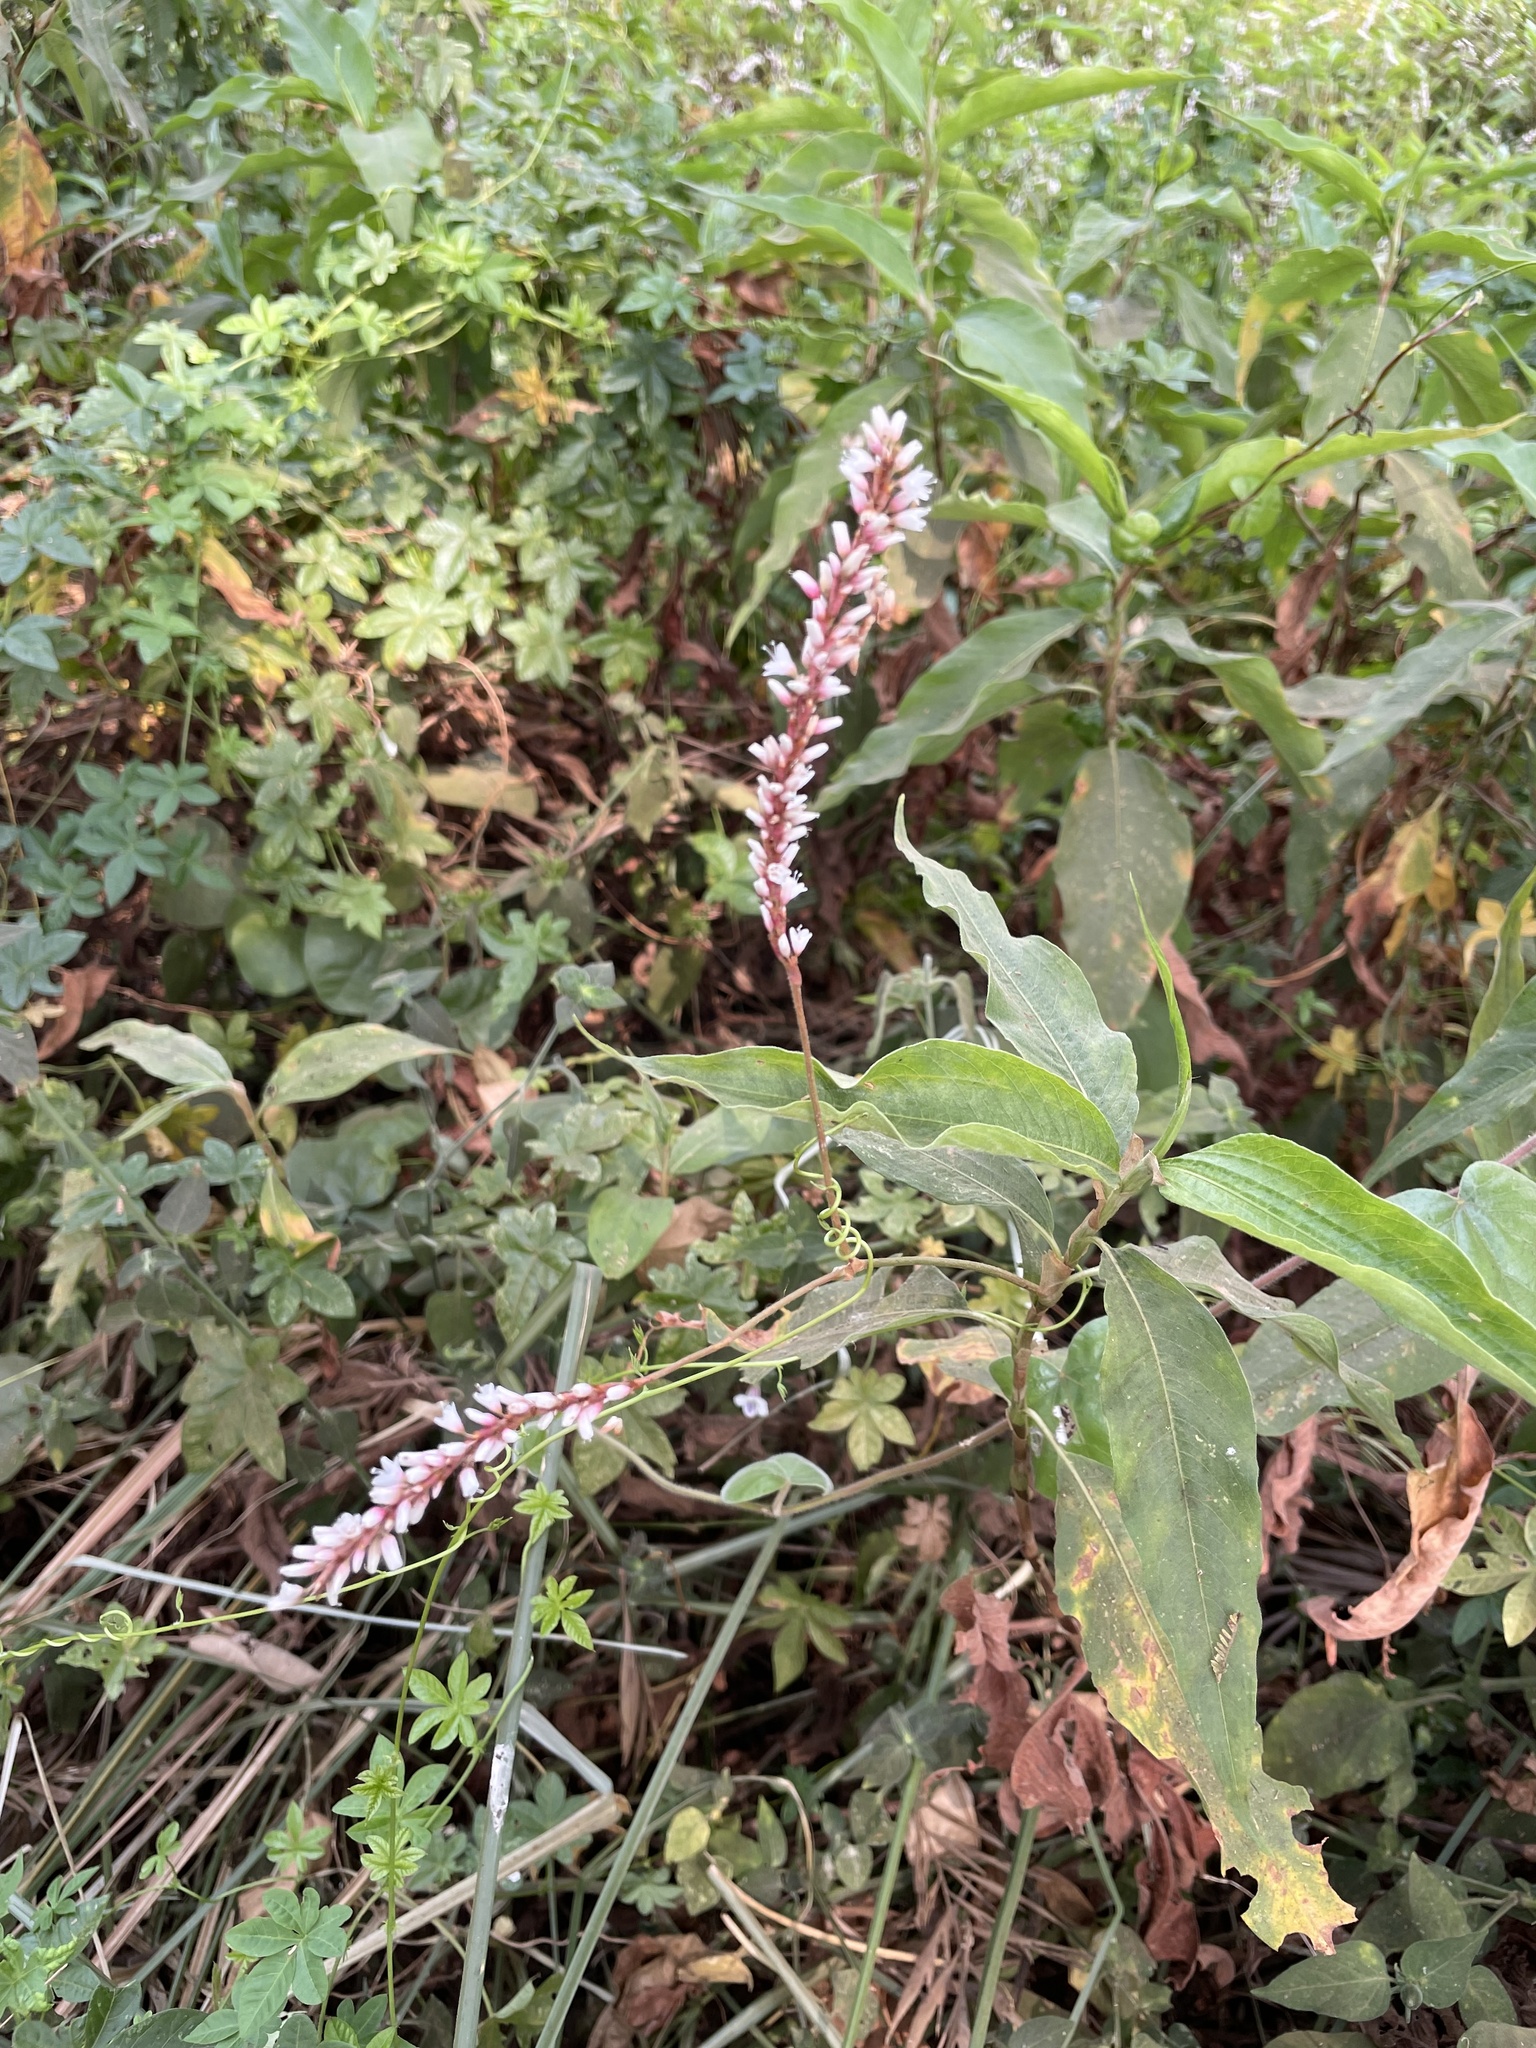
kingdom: Plantae
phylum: Tracheophyta
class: Magnoliopsida
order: Caryophyllales
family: Polygonaceae
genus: Persicaria
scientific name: Persicaria madagascariensis
